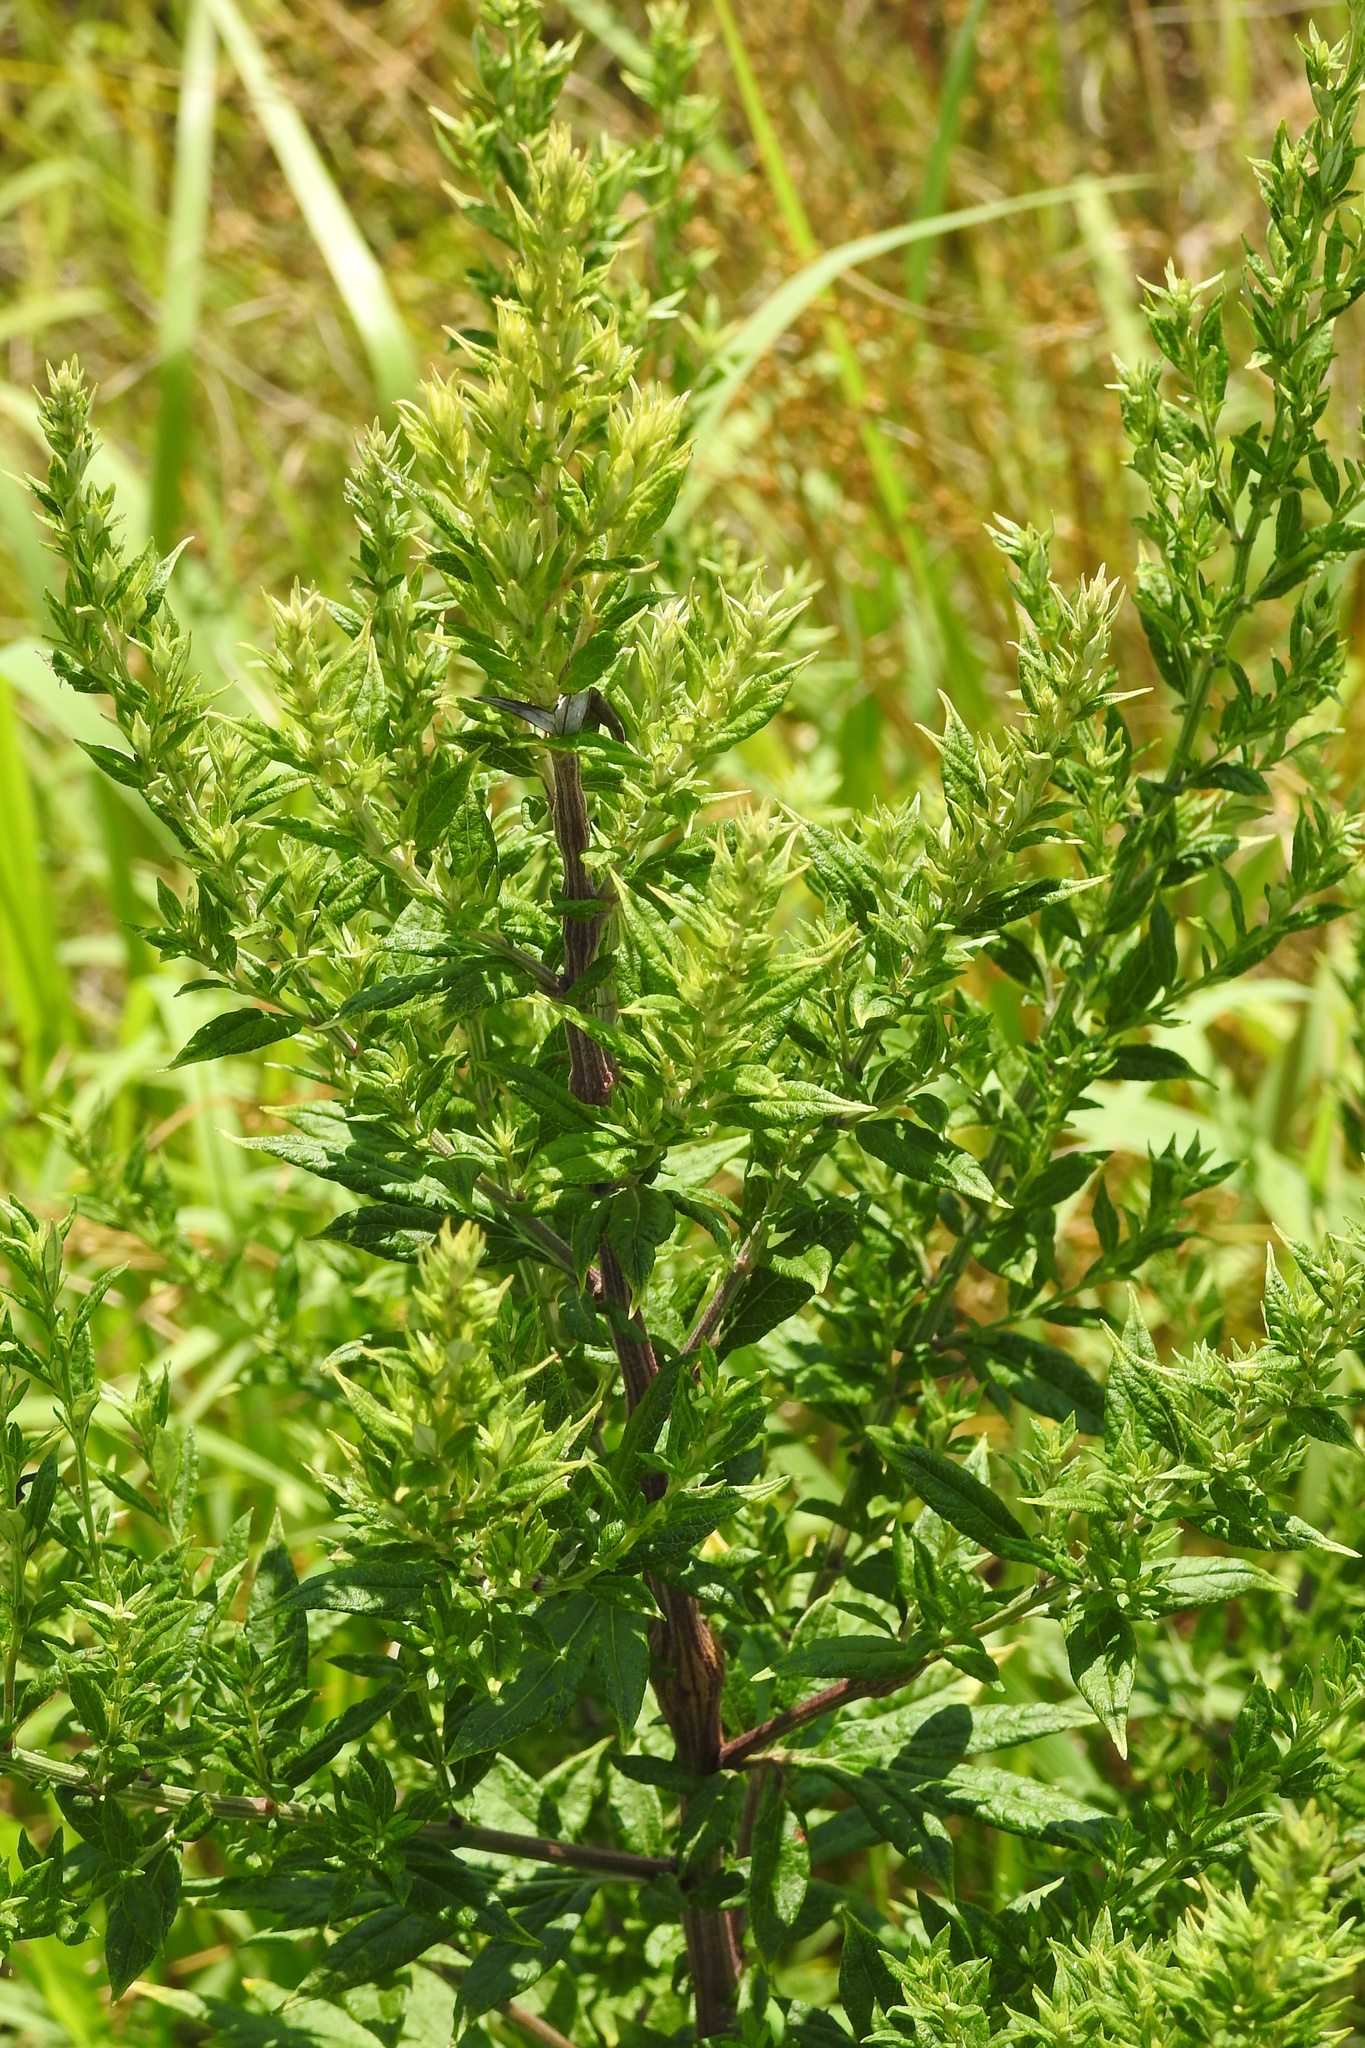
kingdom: Plantae
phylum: Tracheophyta
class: Magnoliopsida
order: Asterales
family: Asteraceae
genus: Artemisia
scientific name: Artemisia vulgaris
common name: Mugwort
